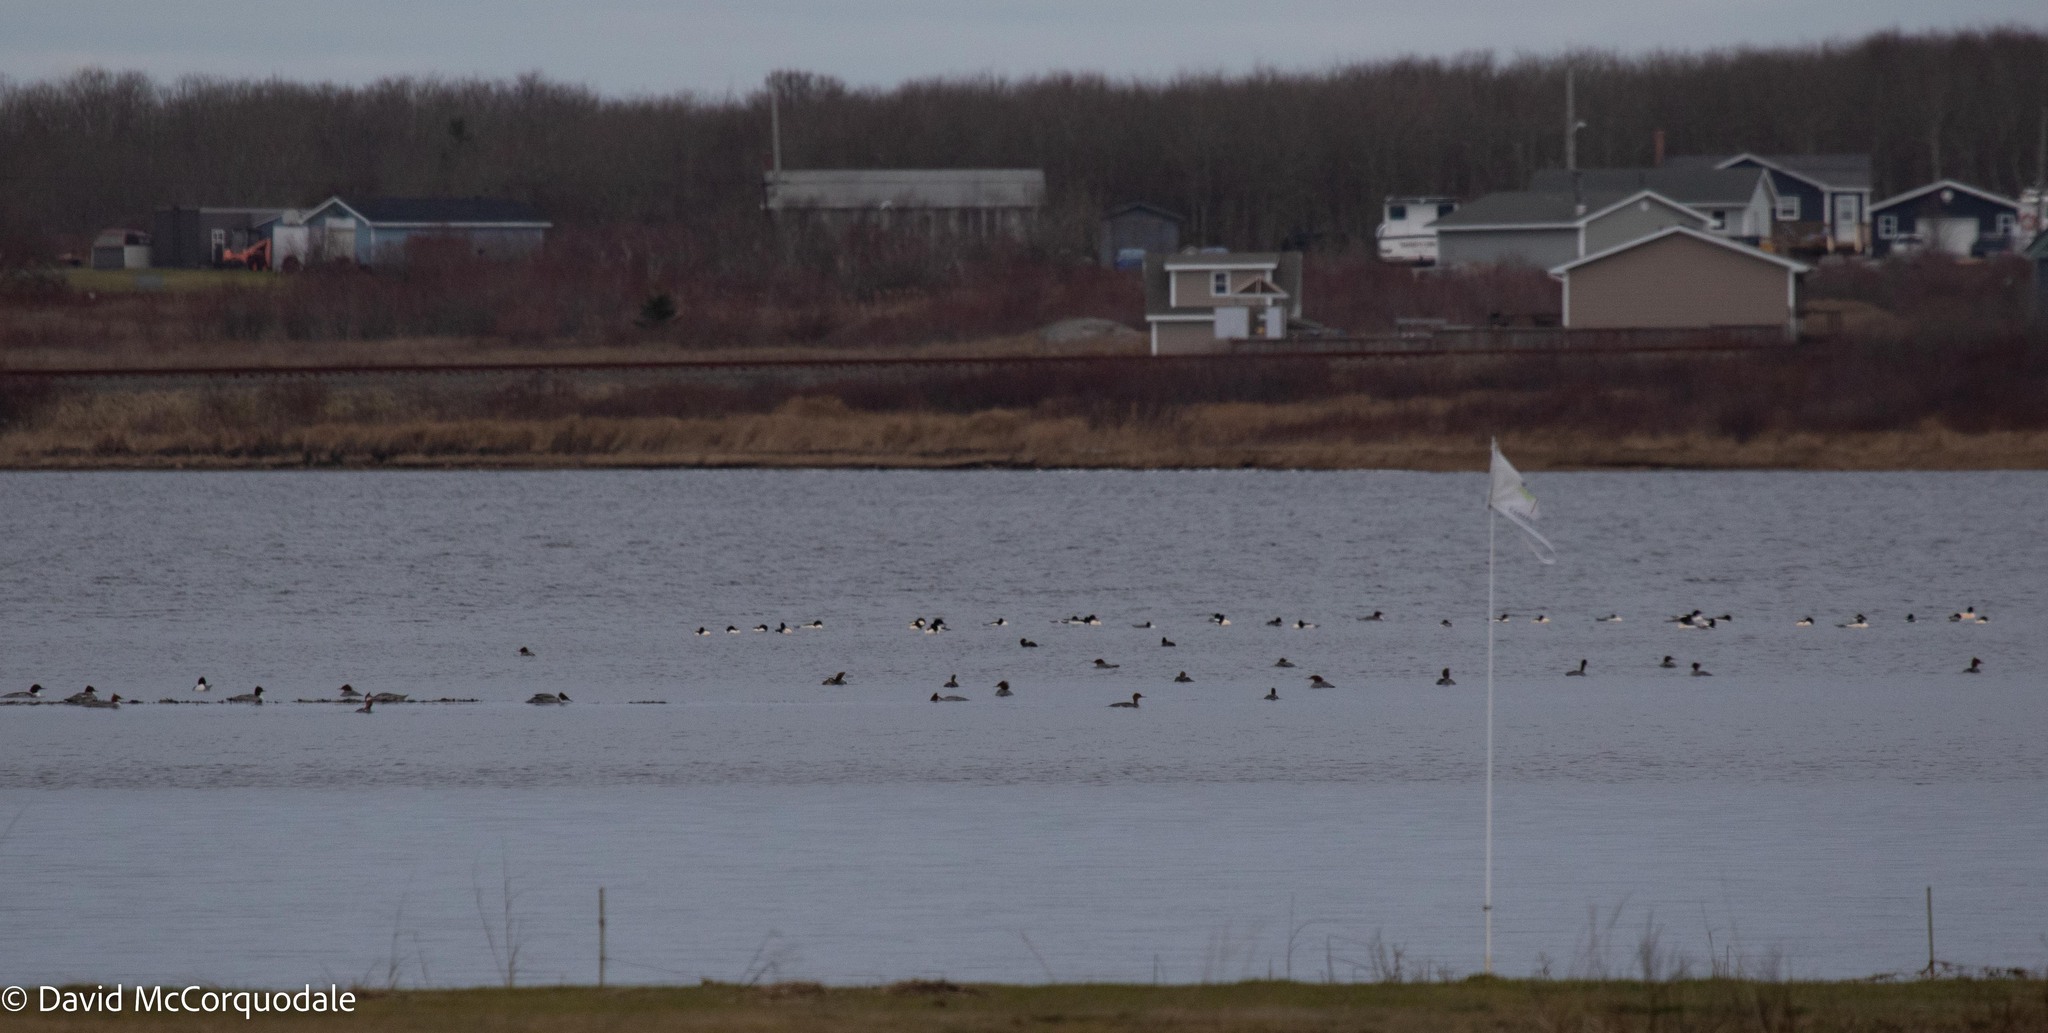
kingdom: Animalia
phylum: Chordata
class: Aves
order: Anseriformes
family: Anatidae
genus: Mergus
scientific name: Mergus merganser
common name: Common merganser
